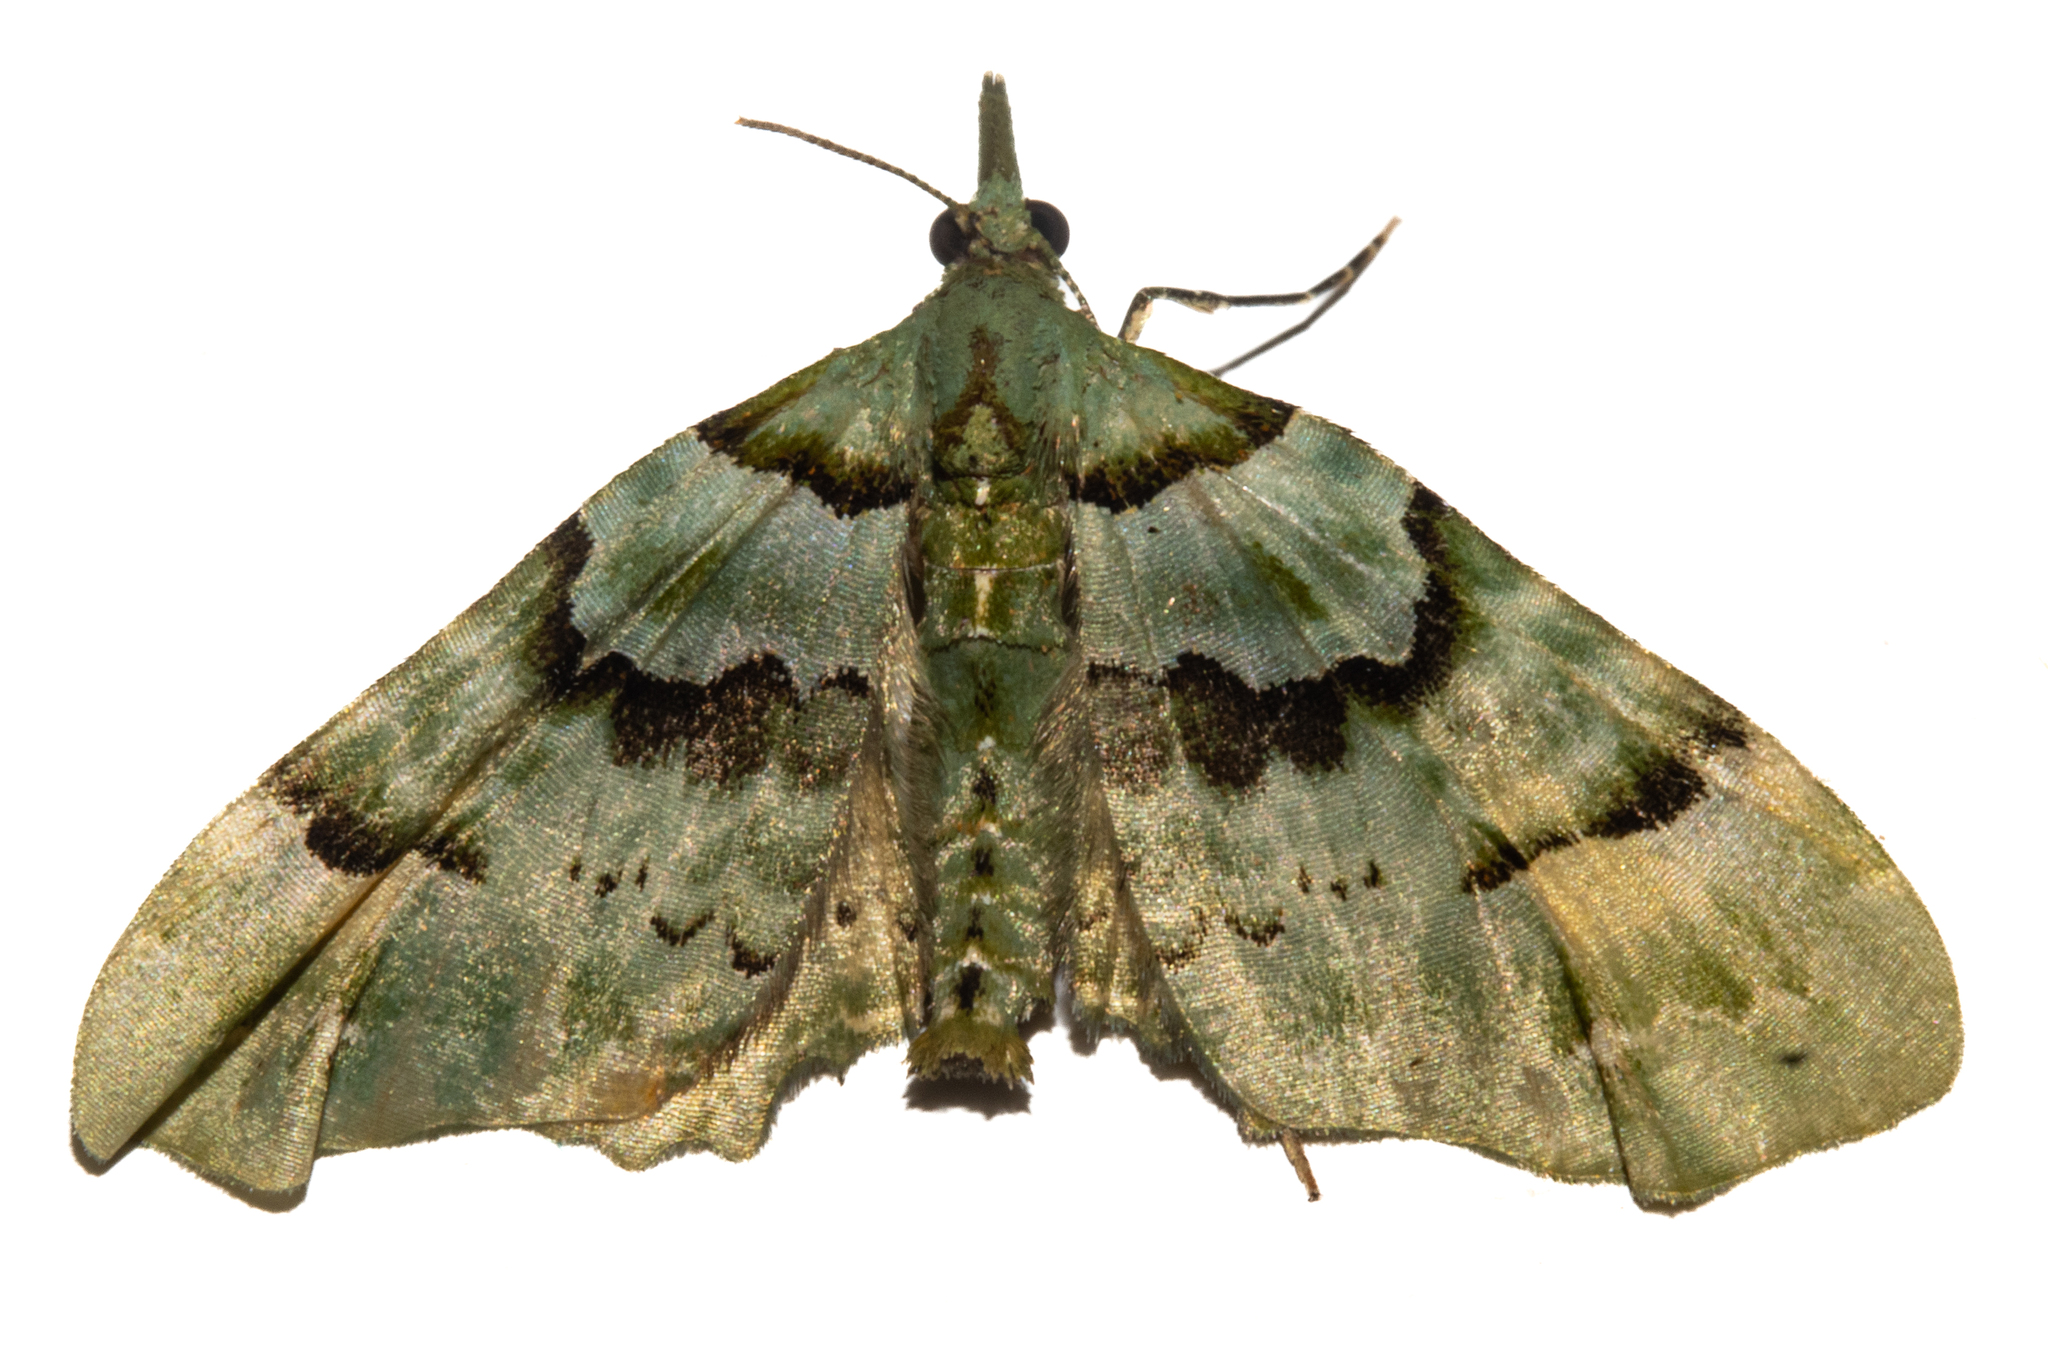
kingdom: Animalia
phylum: Arthropoda
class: Insecta
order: Lepidoptera
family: Geometridae
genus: Elvia
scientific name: Elvia glaucata
